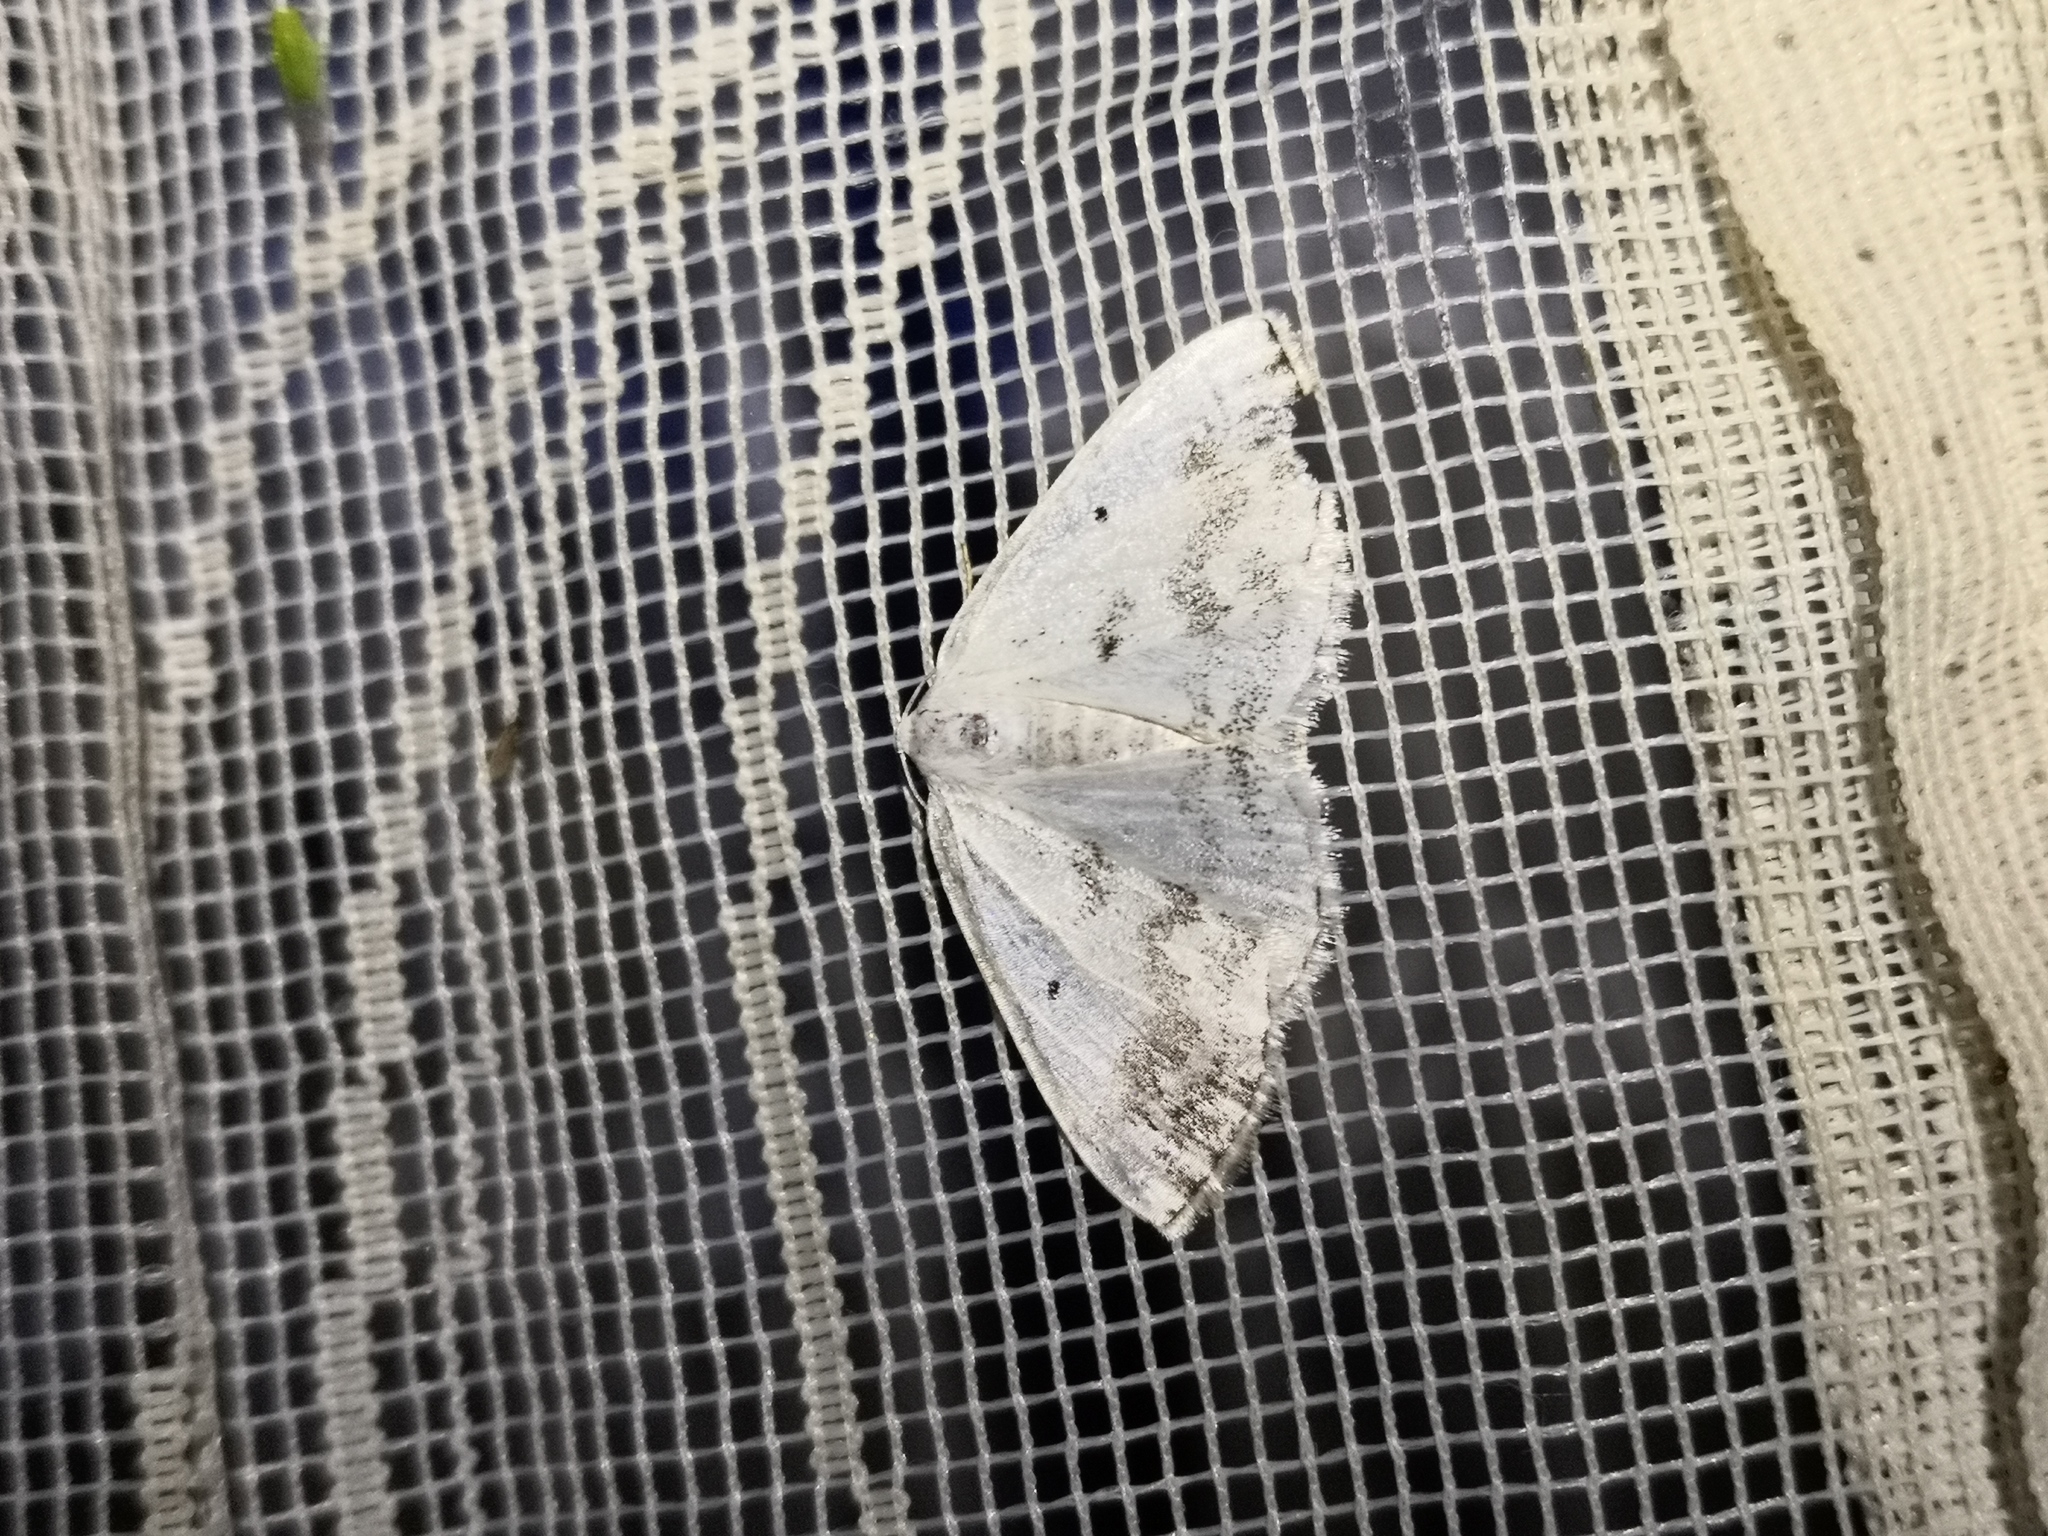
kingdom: Animalia
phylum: Arthropoda
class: Insecta
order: Lepidoptera
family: Geometridae
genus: Lomographa
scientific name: Lomographa temerata
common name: Clouded silver
